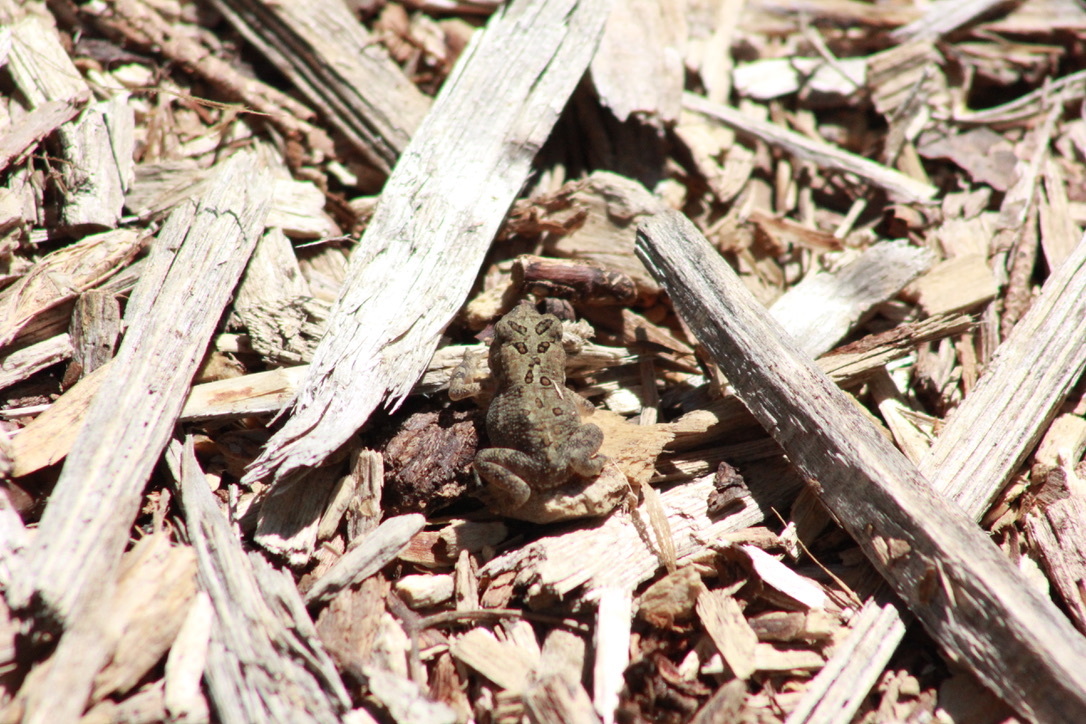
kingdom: Animalia
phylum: Chordata
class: Amphibia
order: Anura
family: Bufonidae
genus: Anaxyrus
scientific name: Anaxyrus americanus
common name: American toad
